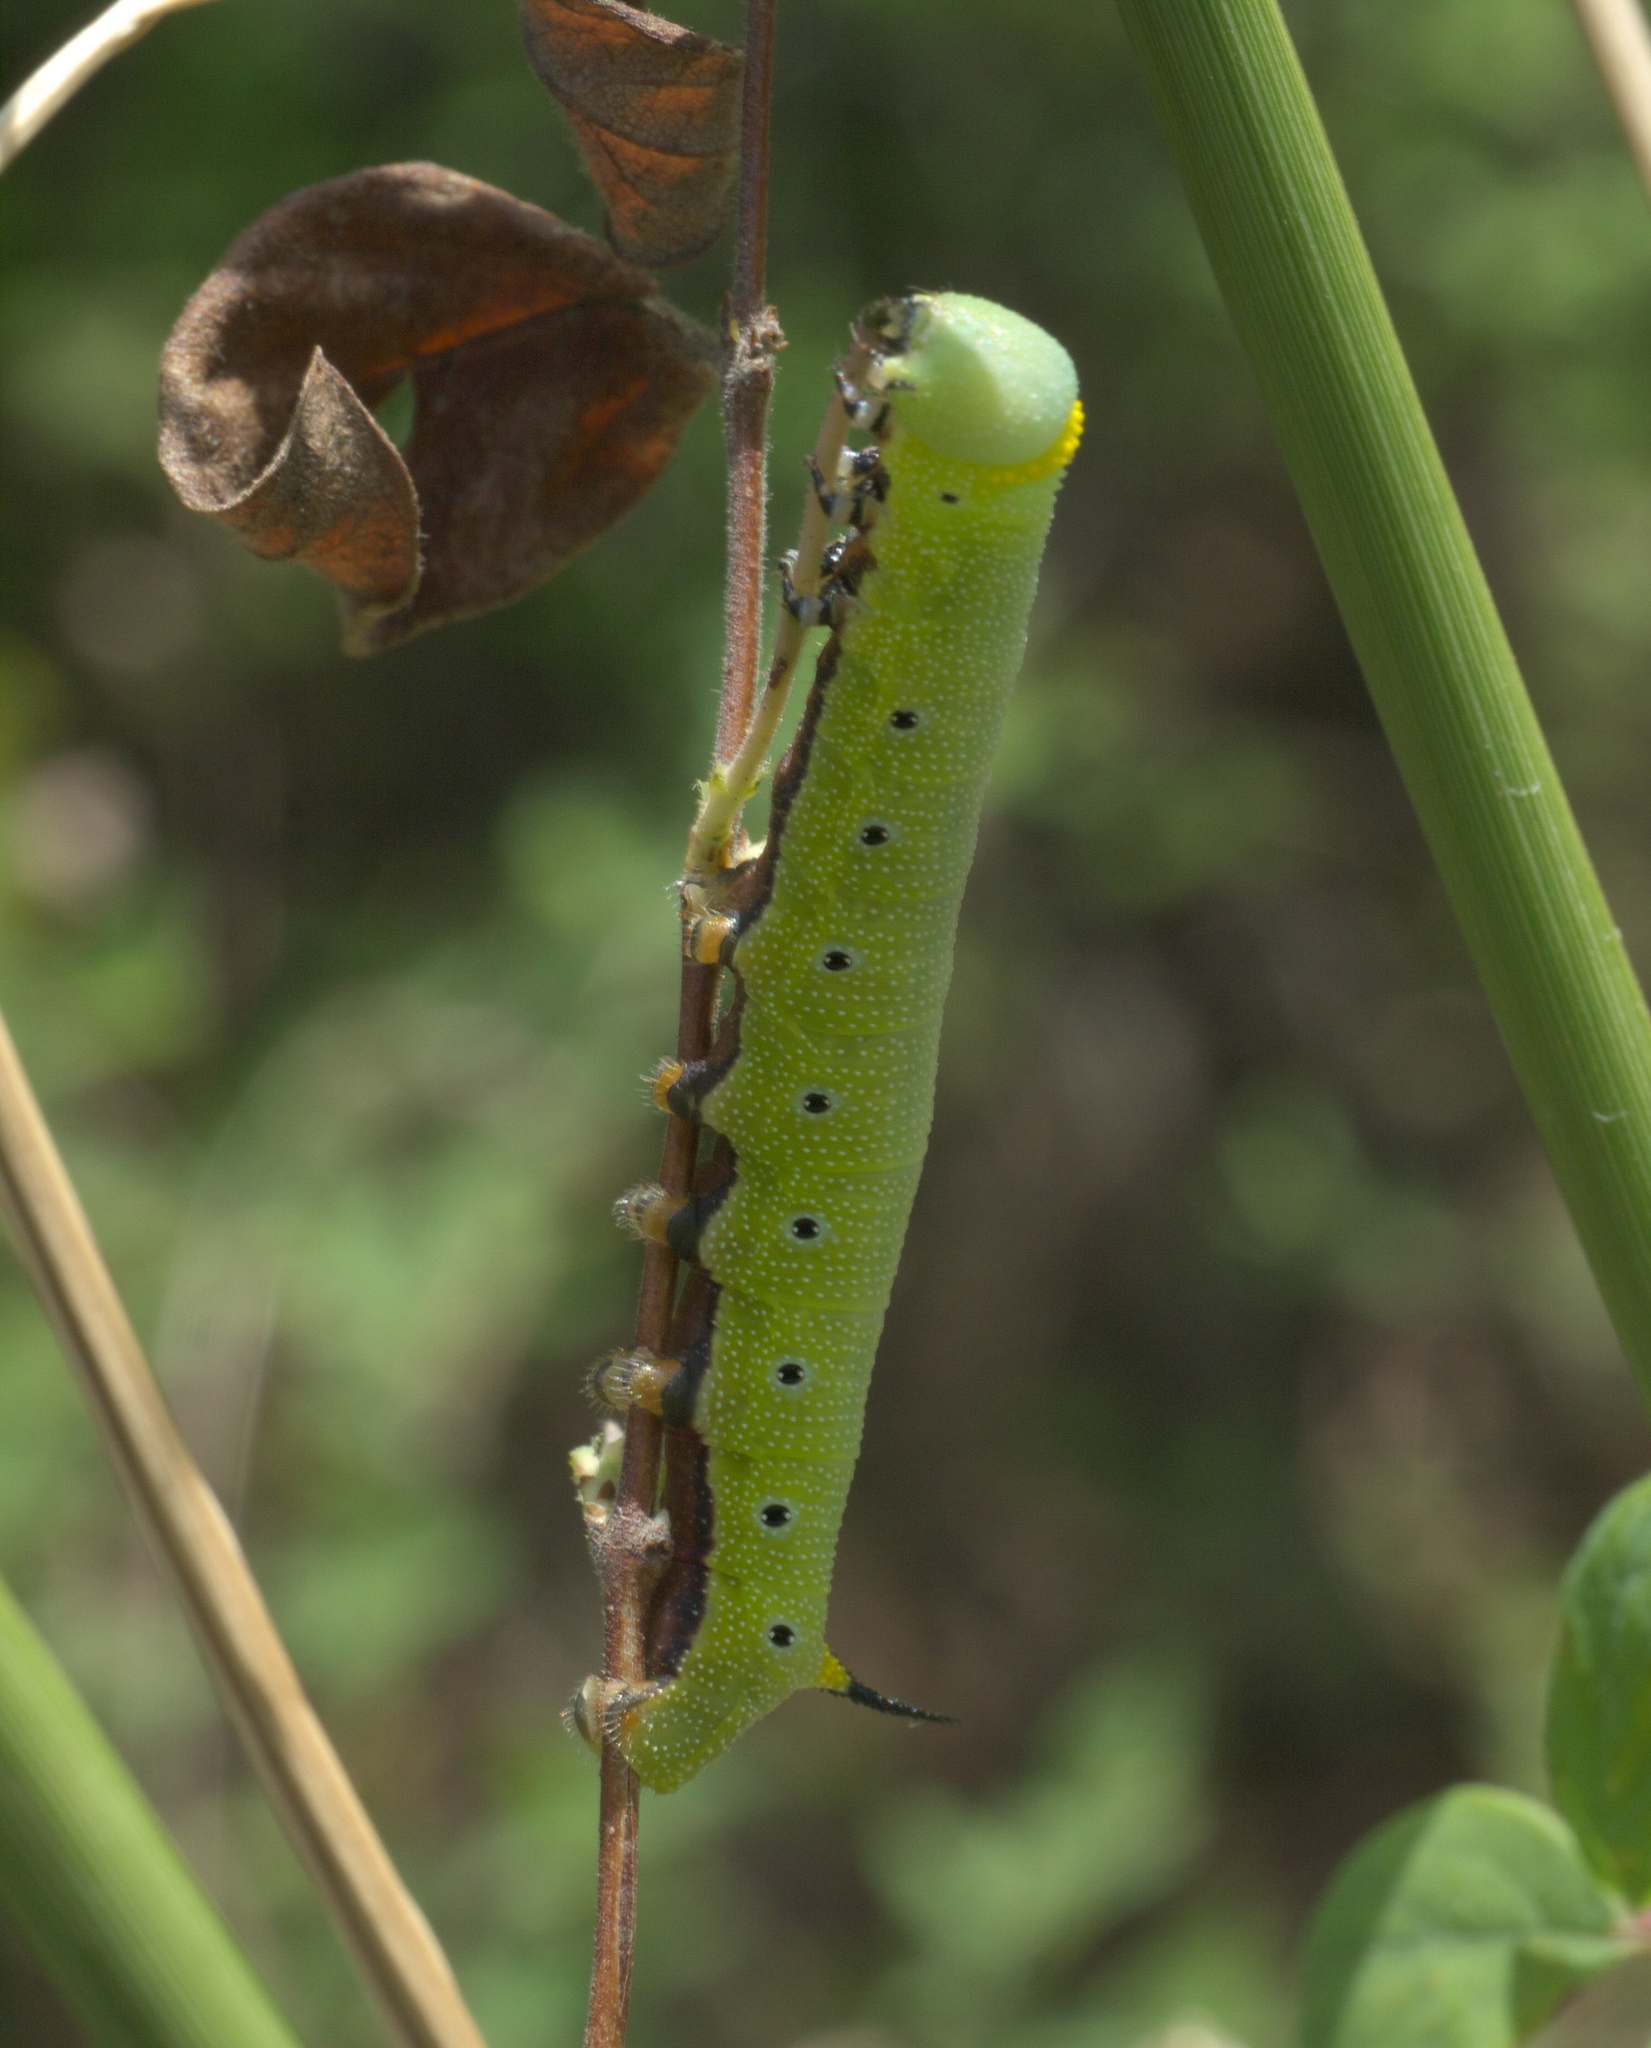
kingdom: Animalia
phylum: Arthropoda
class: Insecta
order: Lepidoptera
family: Sphingidae
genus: Hemaris
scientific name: Hemaris diffinis
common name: Bumblebee moth
